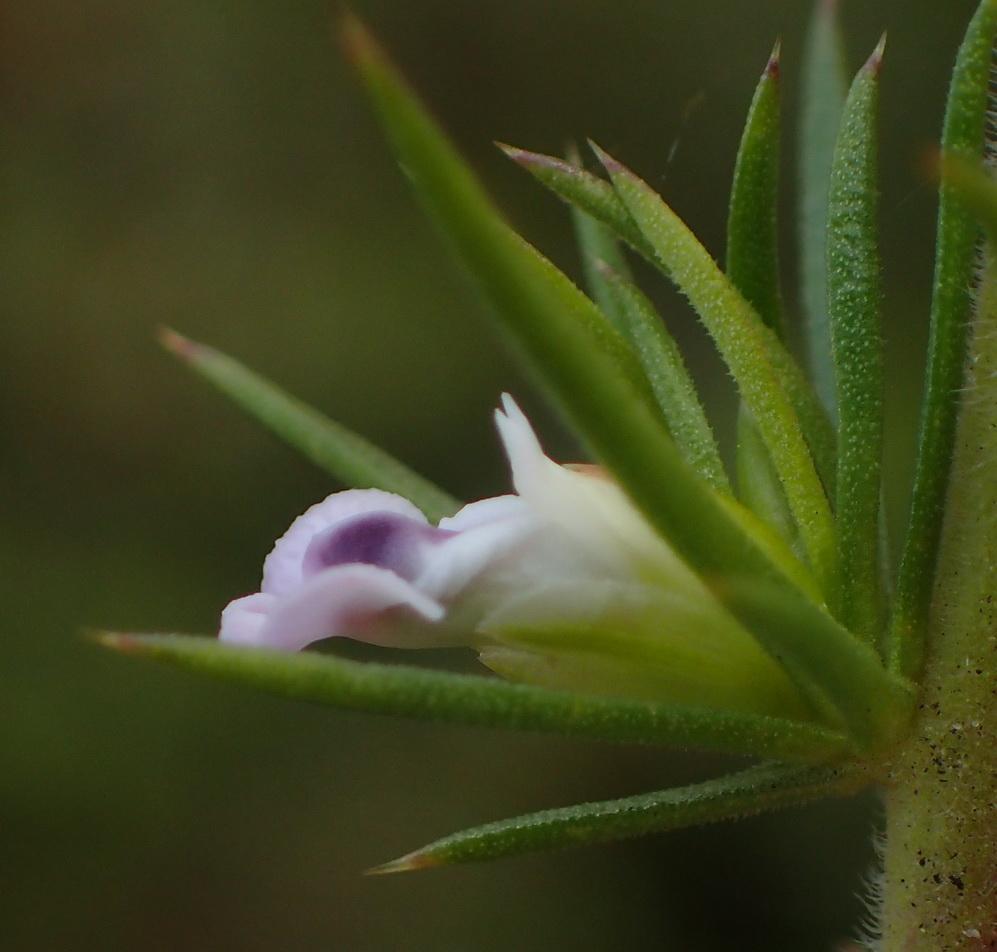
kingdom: Plantae
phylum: Tracheophyta
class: Magnoliopsida
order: Fabales
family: Polygalaceae
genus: Muraltia
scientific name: Muraltia ericifolia
